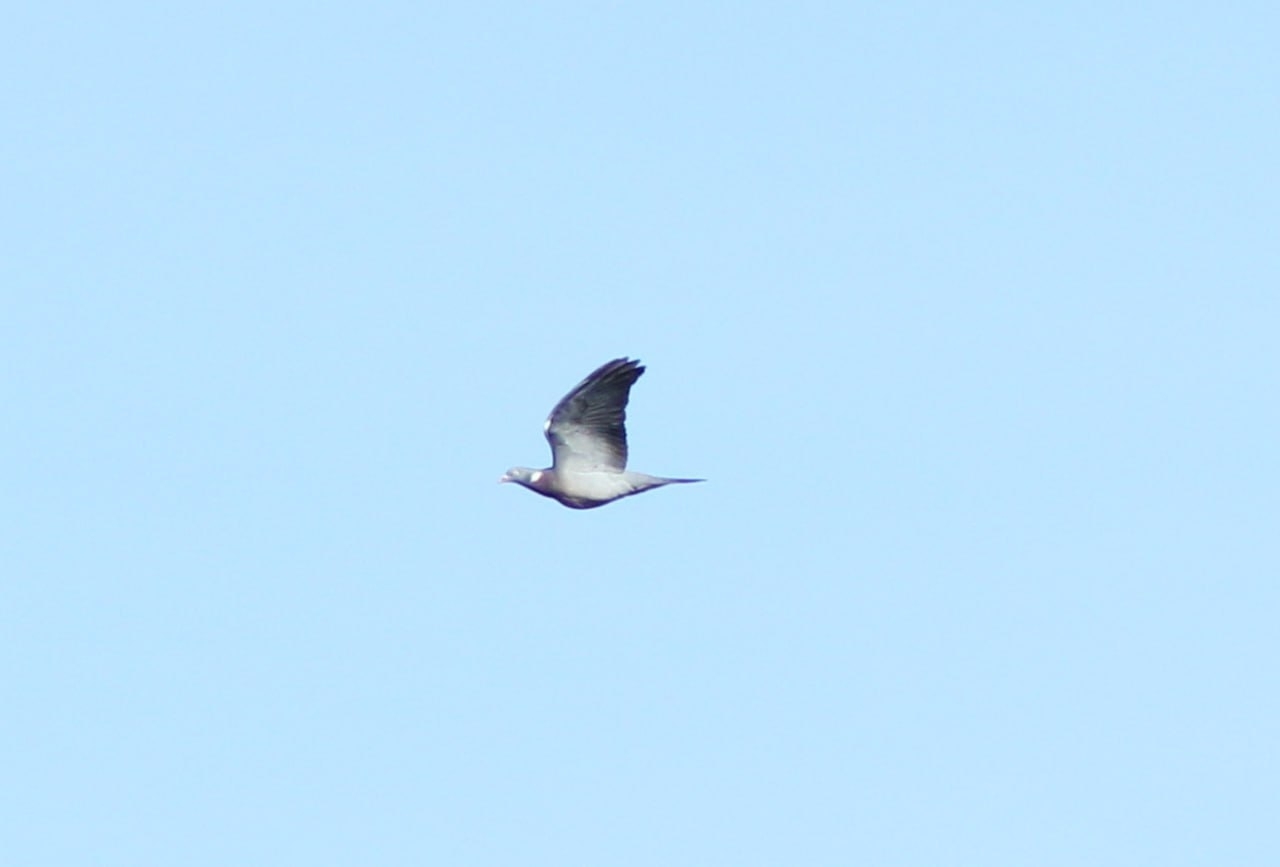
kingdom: Animalia
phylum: Chordata
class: Aves
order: Columbiformes
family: Columbidae
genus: Columba
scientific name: Columba palumbus
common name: Common wood pigeon
